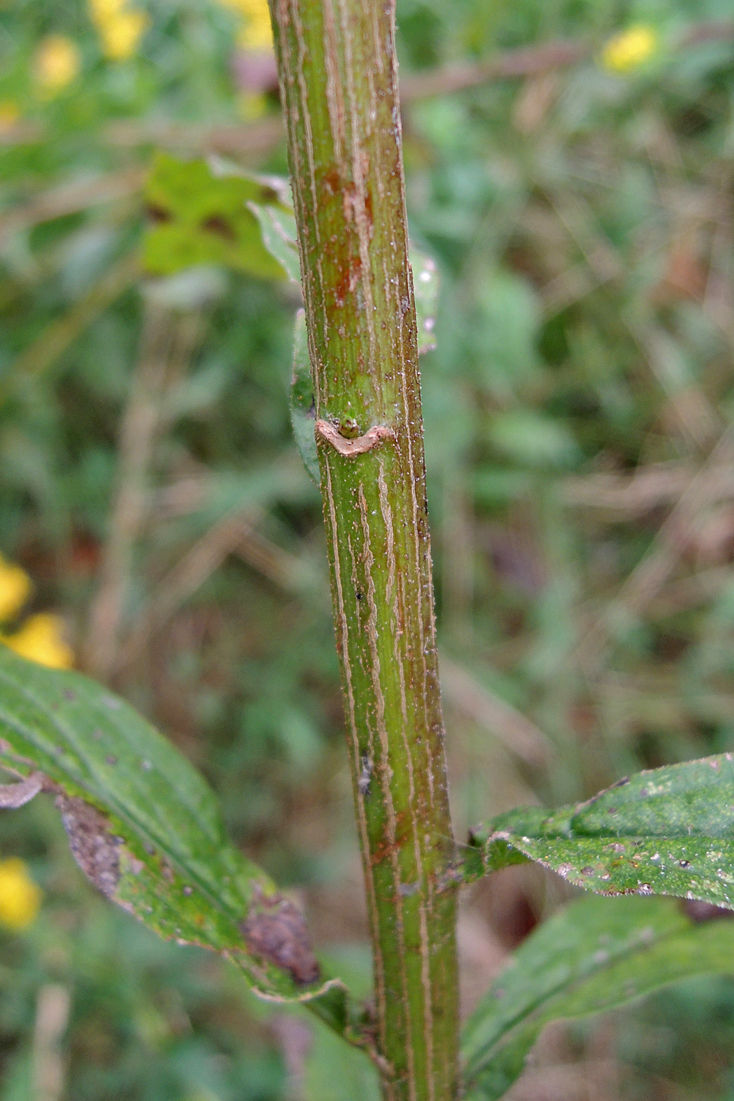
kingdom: Plantae
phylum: Tracheophyta
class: Magnoliopsida
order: Asterales
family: Asteraceae
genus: Solidago
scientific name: Solidago rugosa
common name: Rough-stemmed goldenrod
